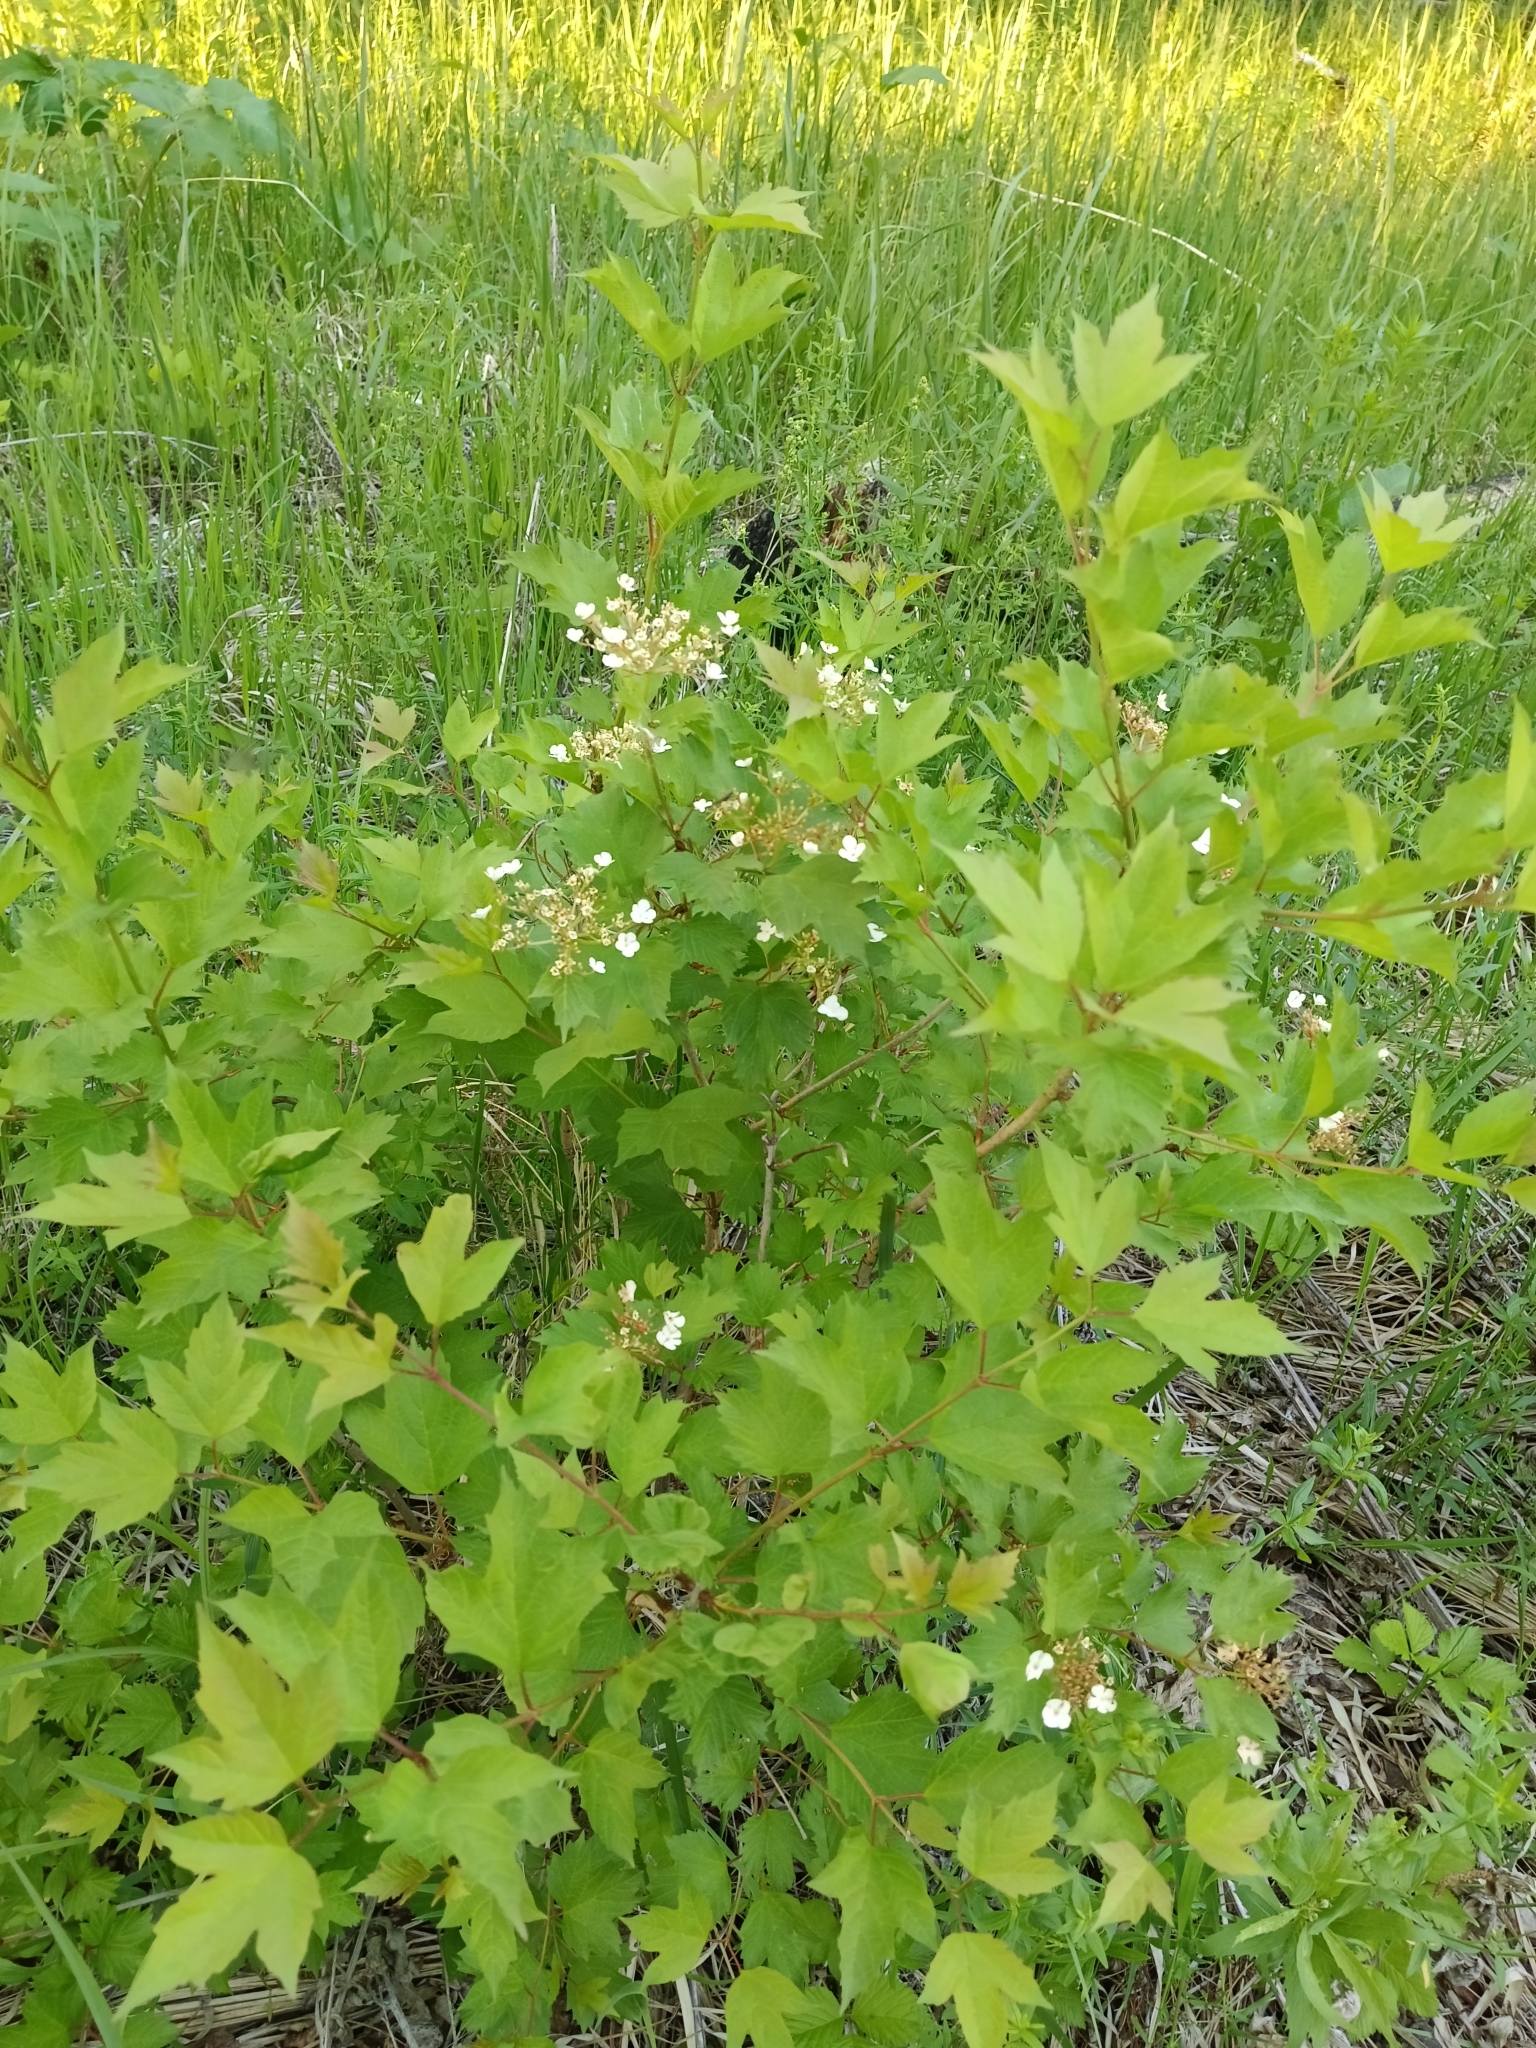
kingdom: Plantae
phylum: Tracheophyta
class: Magnoliopsida
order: Dipsacales
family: Viburnaceae
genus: Viburnum
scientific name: Viburnum opulus
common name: Guelder-rose
